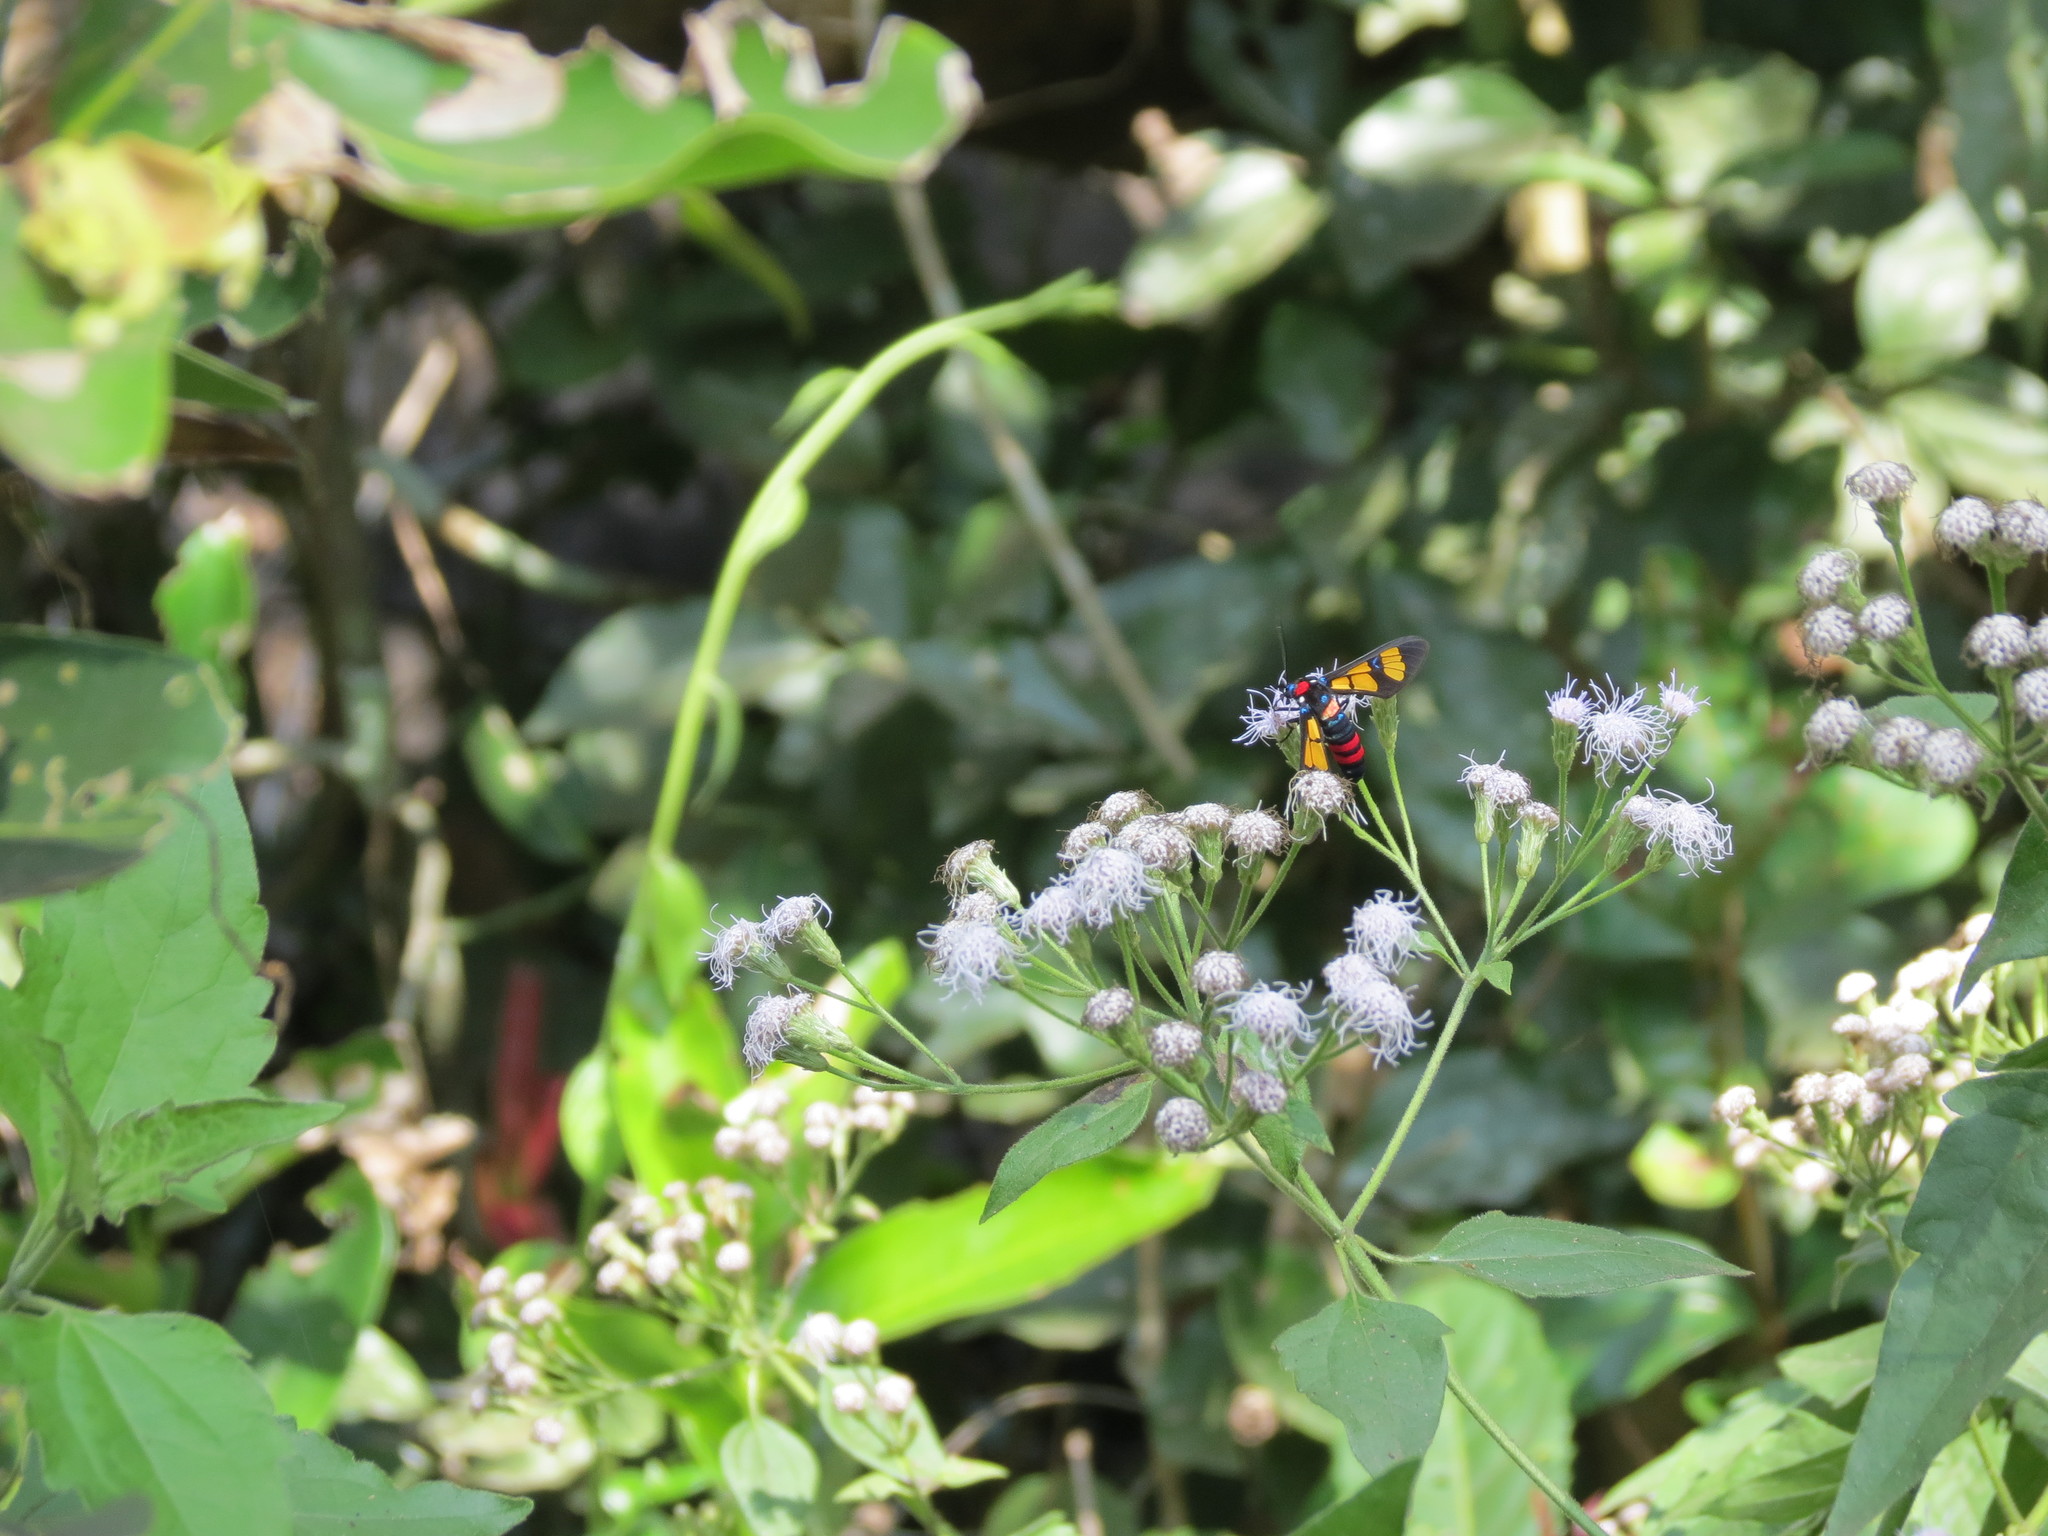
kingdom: Plantae
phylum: Tracheophyta
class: Magnoliopsida
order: Asterales
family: Asteraceae
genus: Chromolaena
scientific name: Chromolaena odorata
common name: Siamweed
